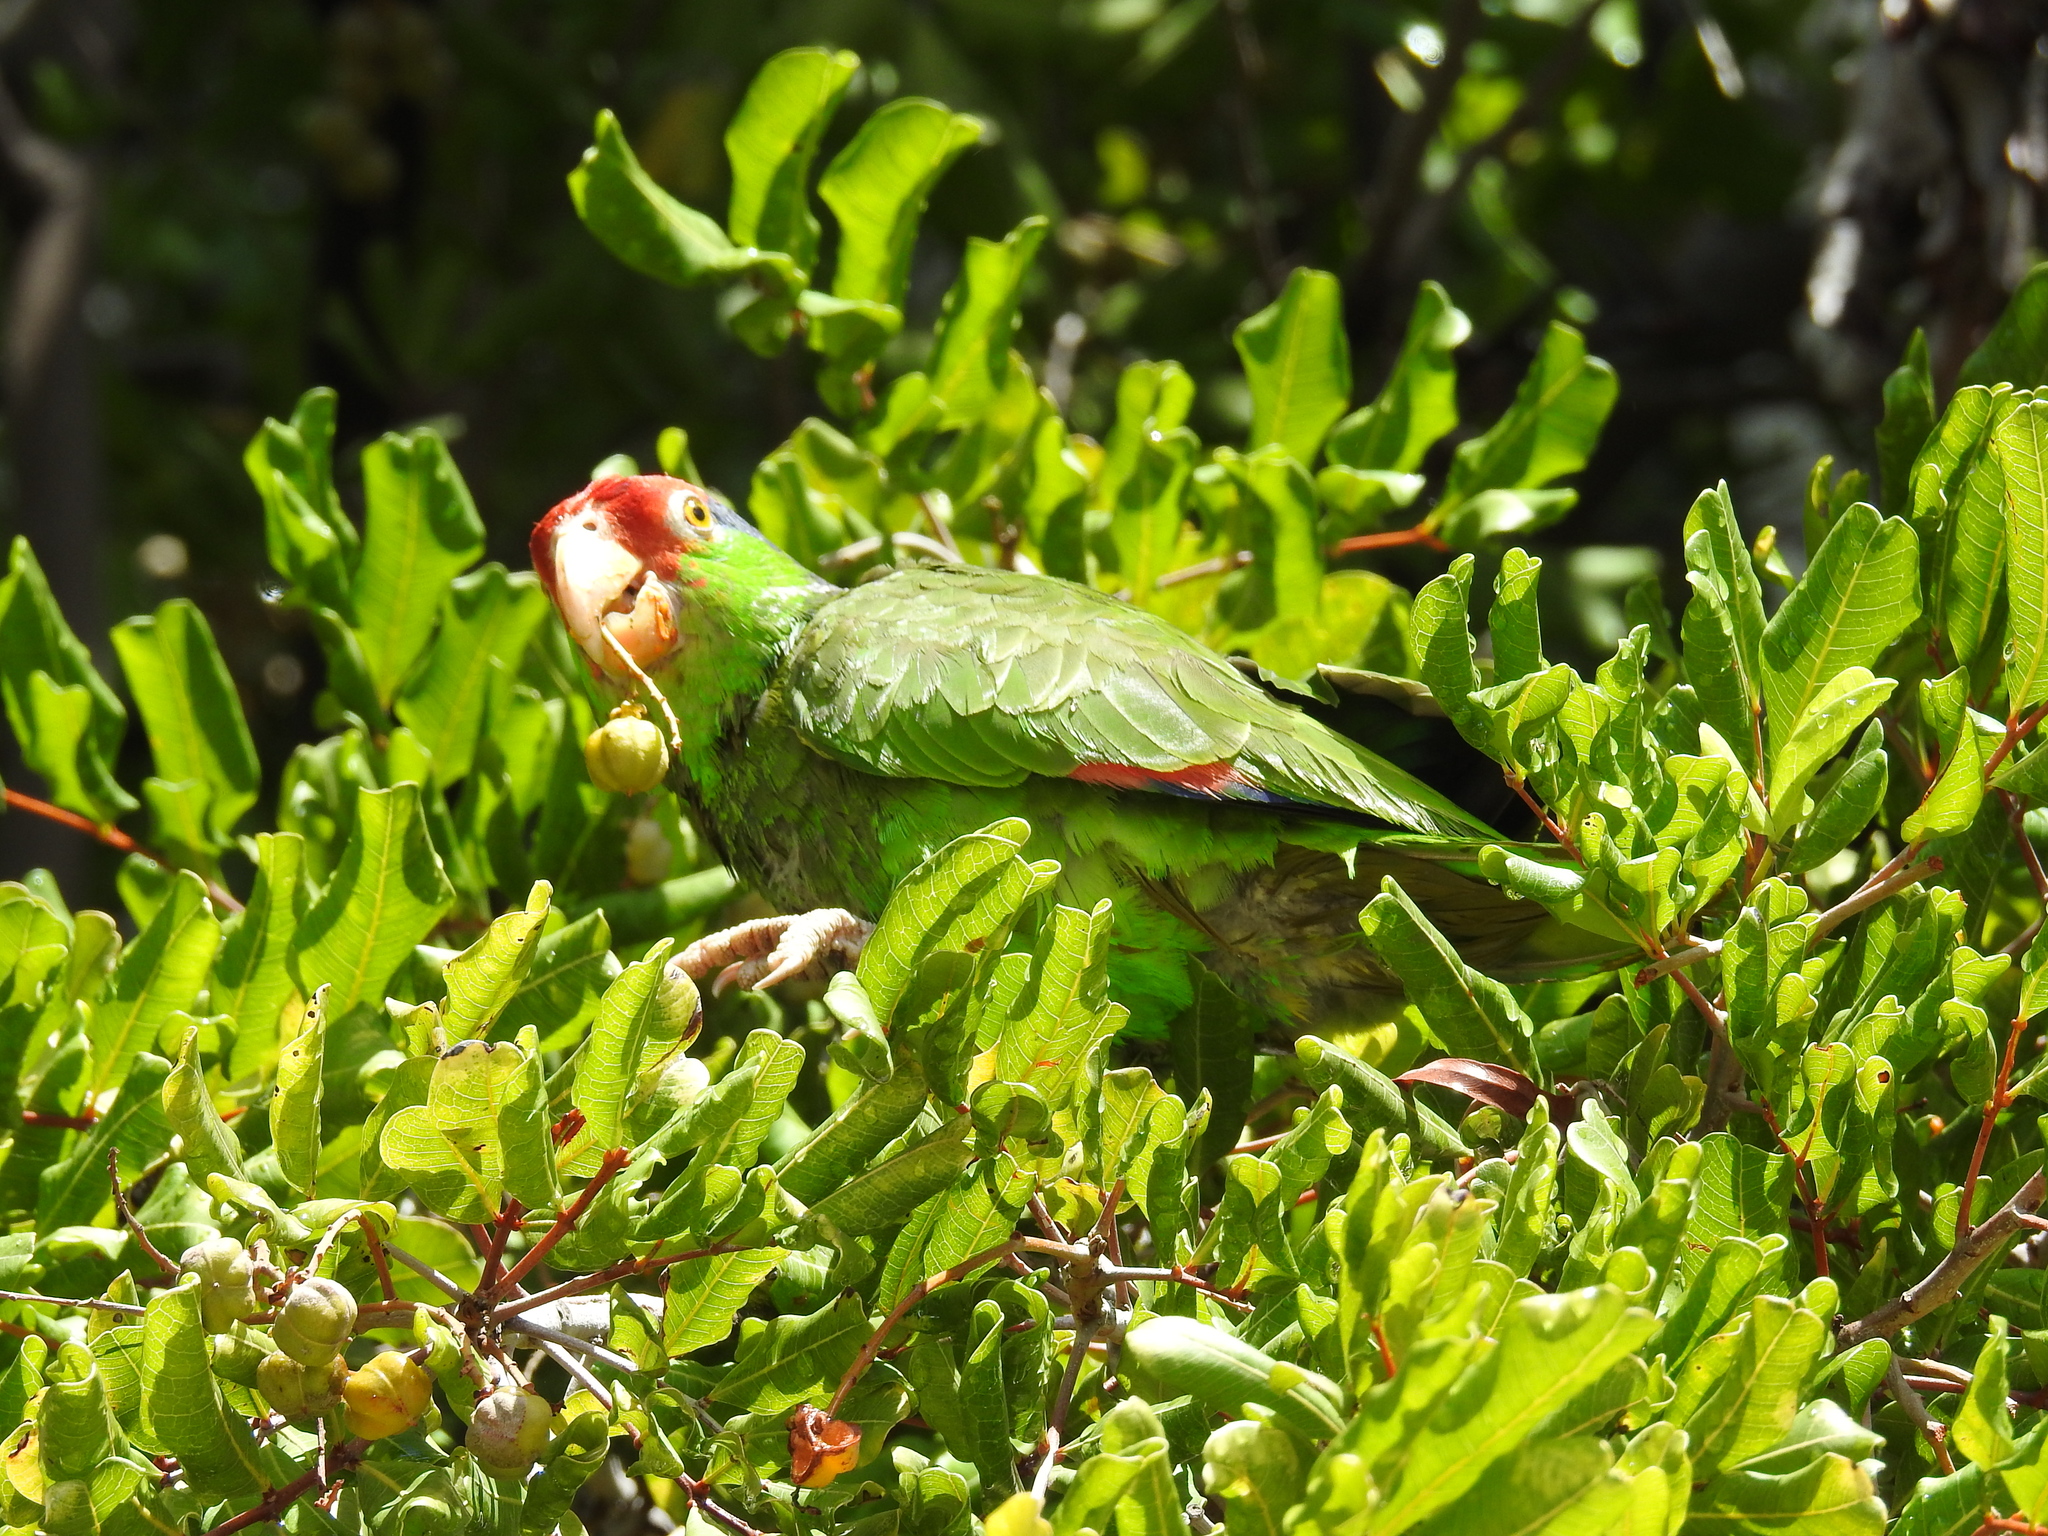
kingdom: Animalia
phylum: Chordata
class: Aves
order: Psittaciformes
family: Psittacidae
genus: Amazona
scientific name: Amazona viridigenalis
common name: Red-crowned amazon
